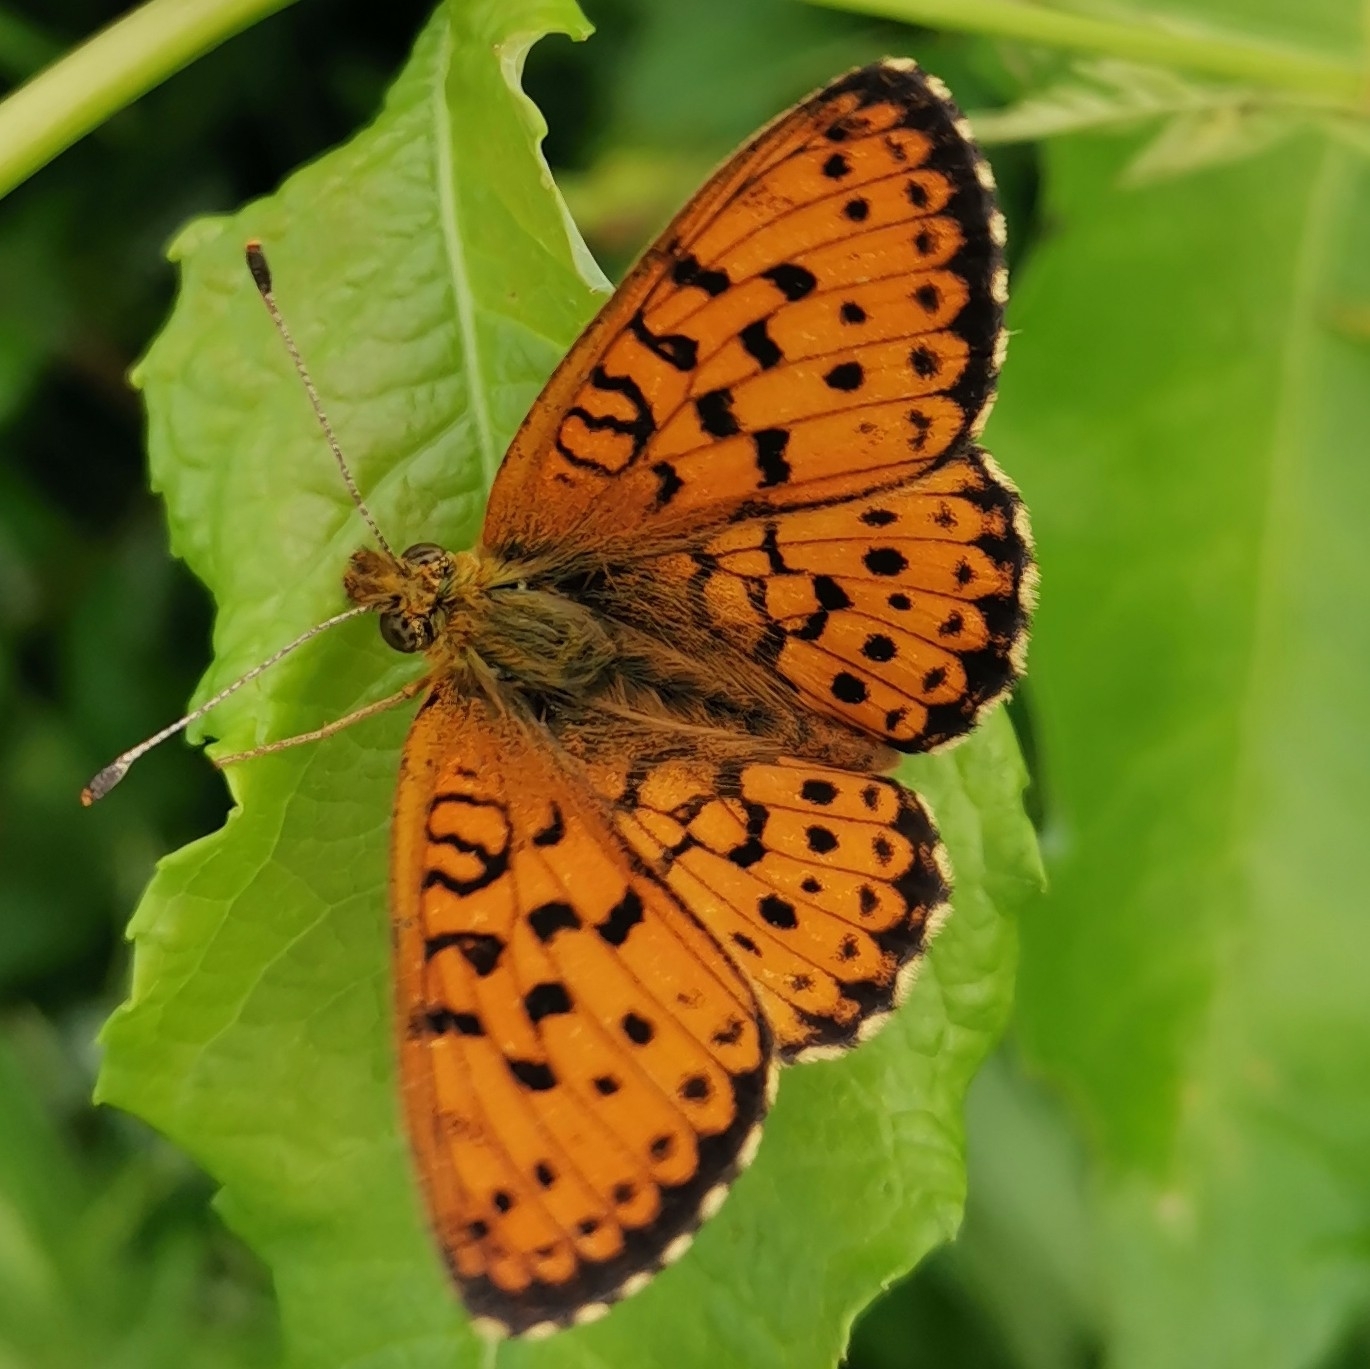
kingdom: Animalia
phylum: Arthropoda
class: Insecta
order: Lepidoptera
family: Nymphalidae
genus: Brenthis
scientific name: Brenthis ino
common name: Lesser marbled fritillary
